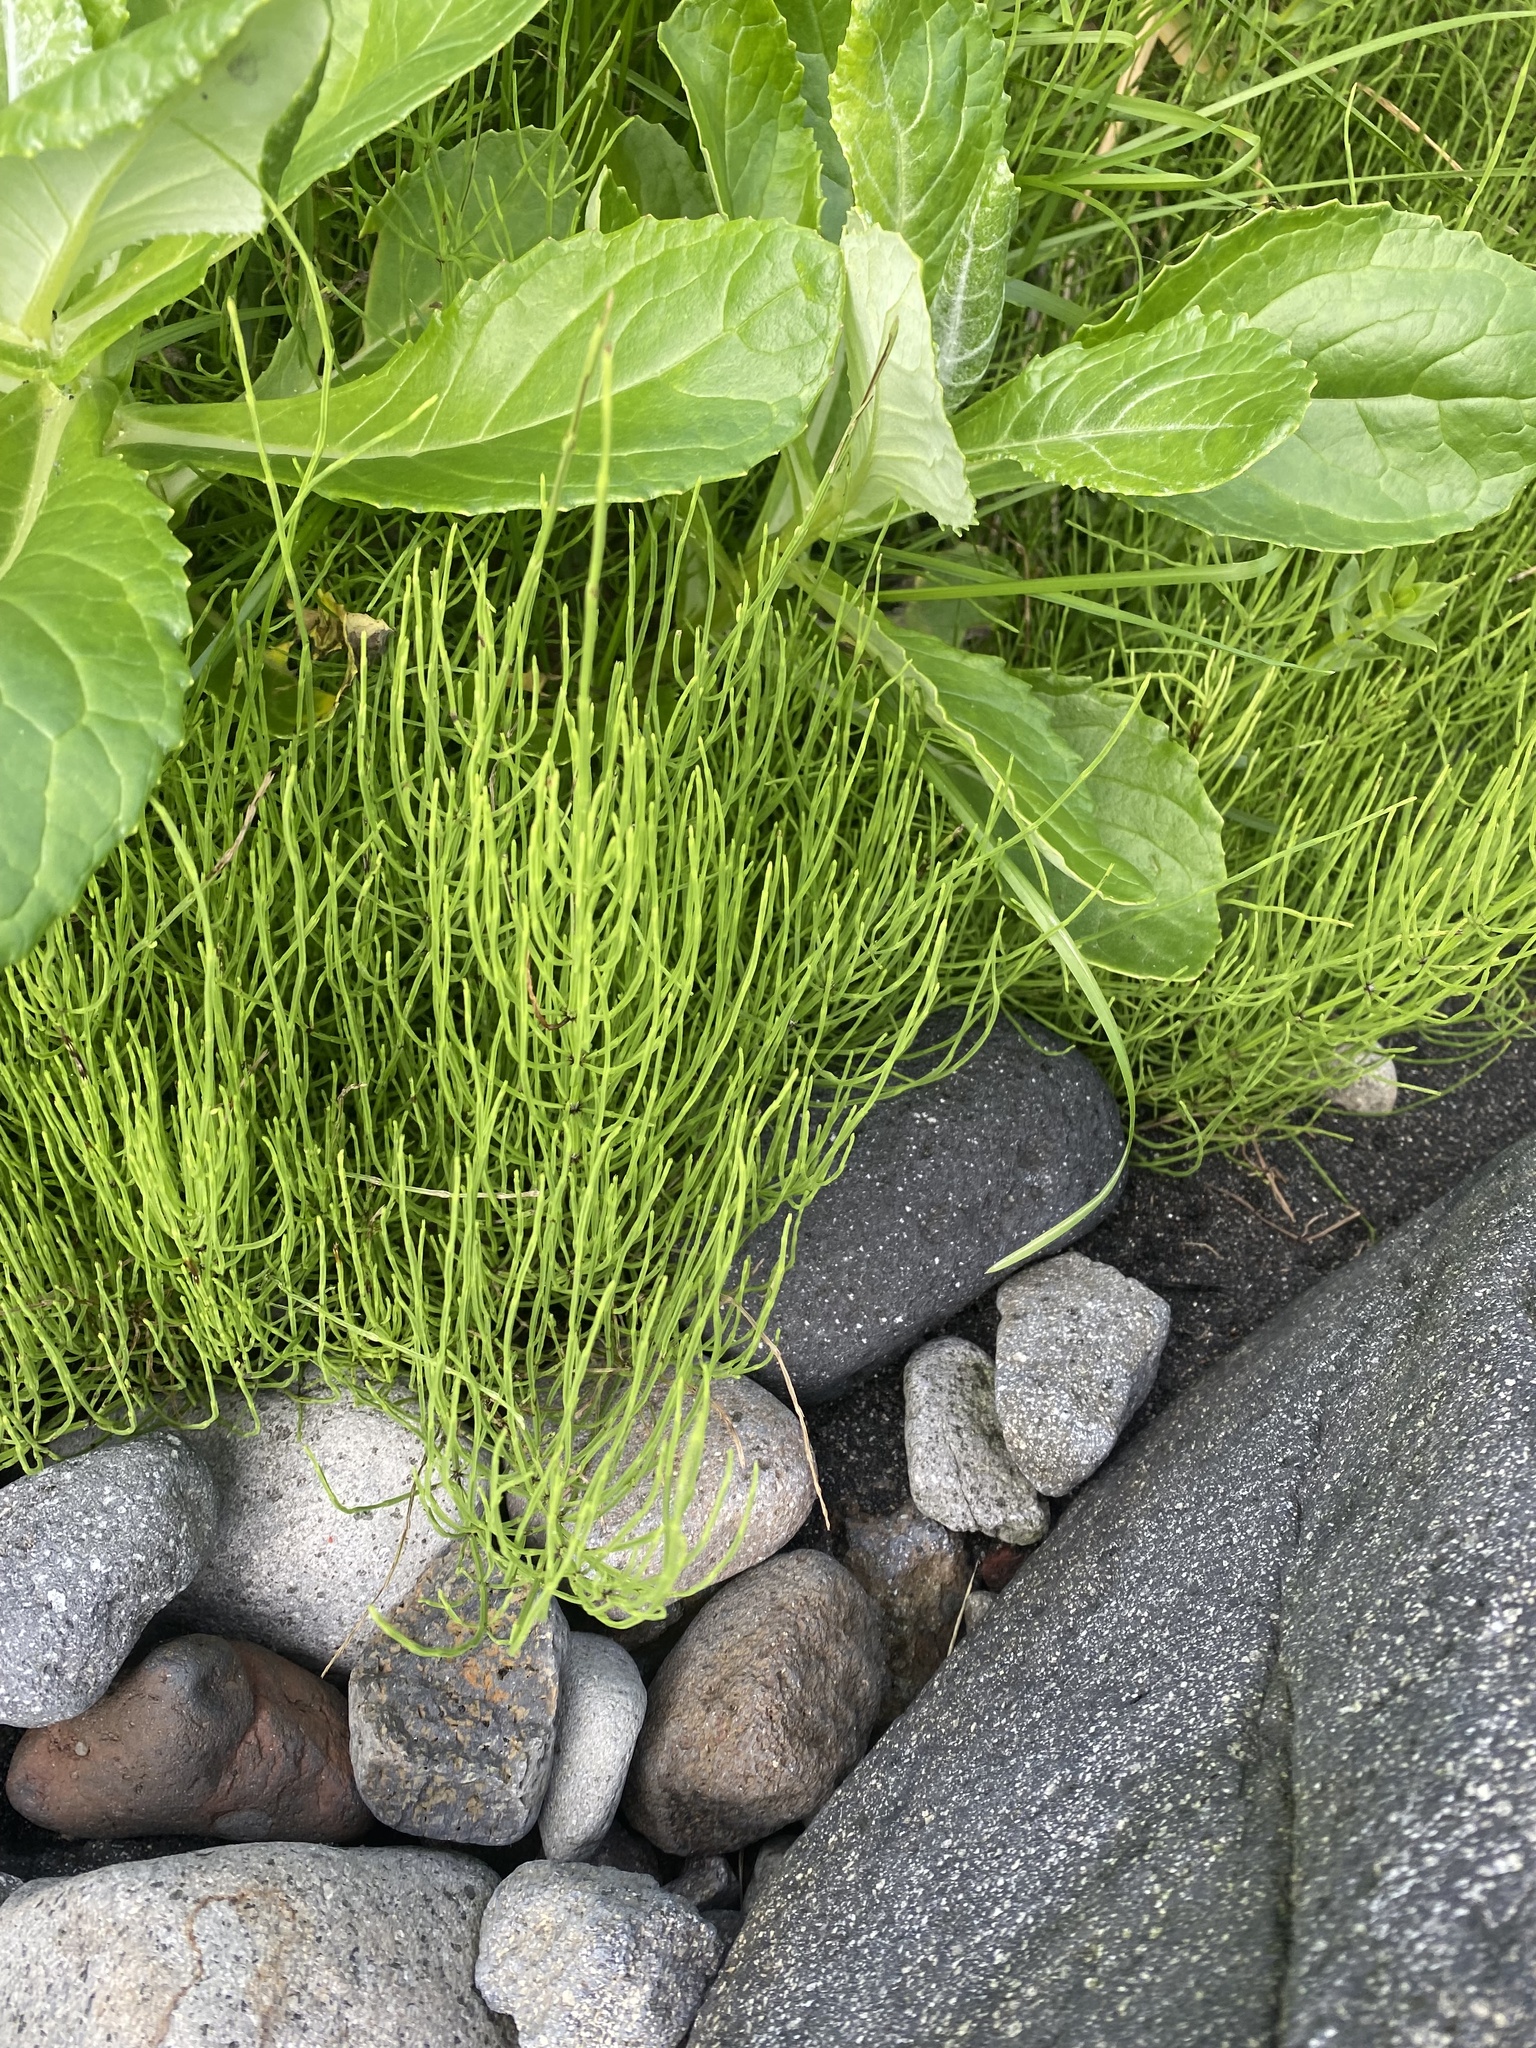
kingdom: Plantae
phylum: Tracheophyta
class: Polypodiopsida
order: Equisetales
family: Equisetaceae
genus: Equisetum
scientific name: Equisetum arvense
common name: Field horsetail
